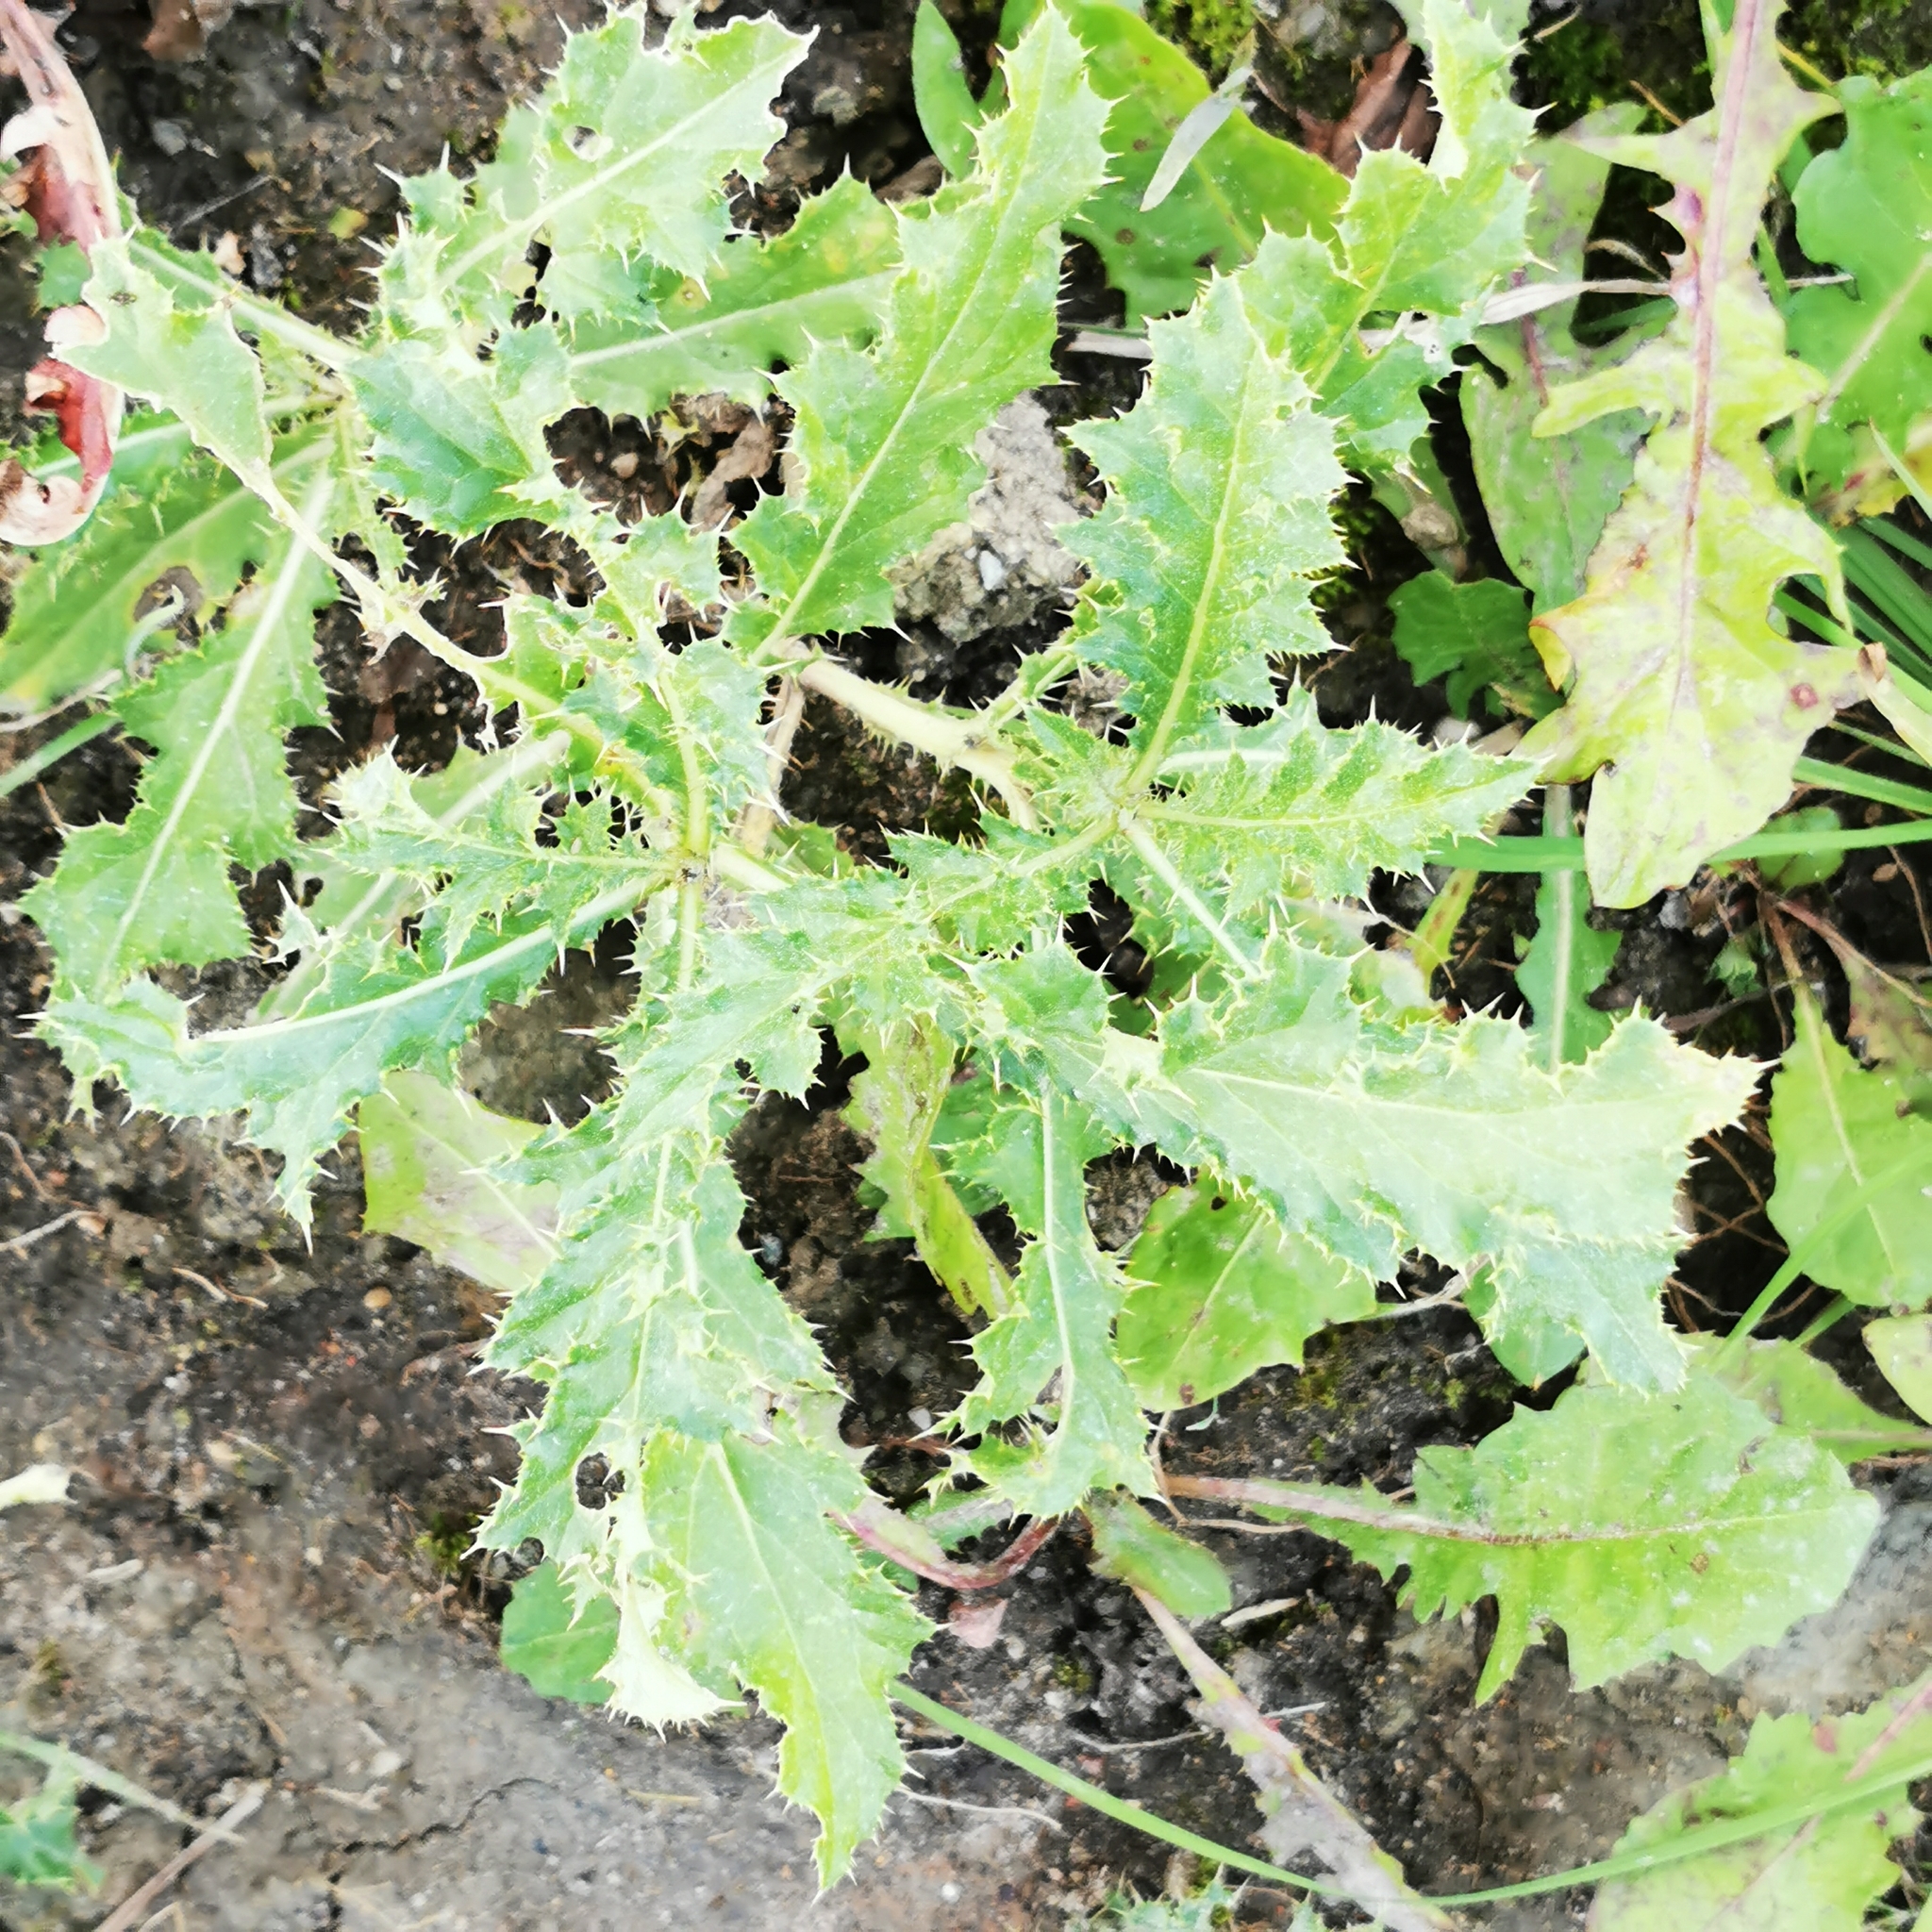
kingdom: Plantae
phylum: Tracheophyta
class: Magnoliopsida
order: Asterales
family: Asteraceae
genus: Cirsium
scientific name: Cirsium arvense
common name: Creeping thistle
